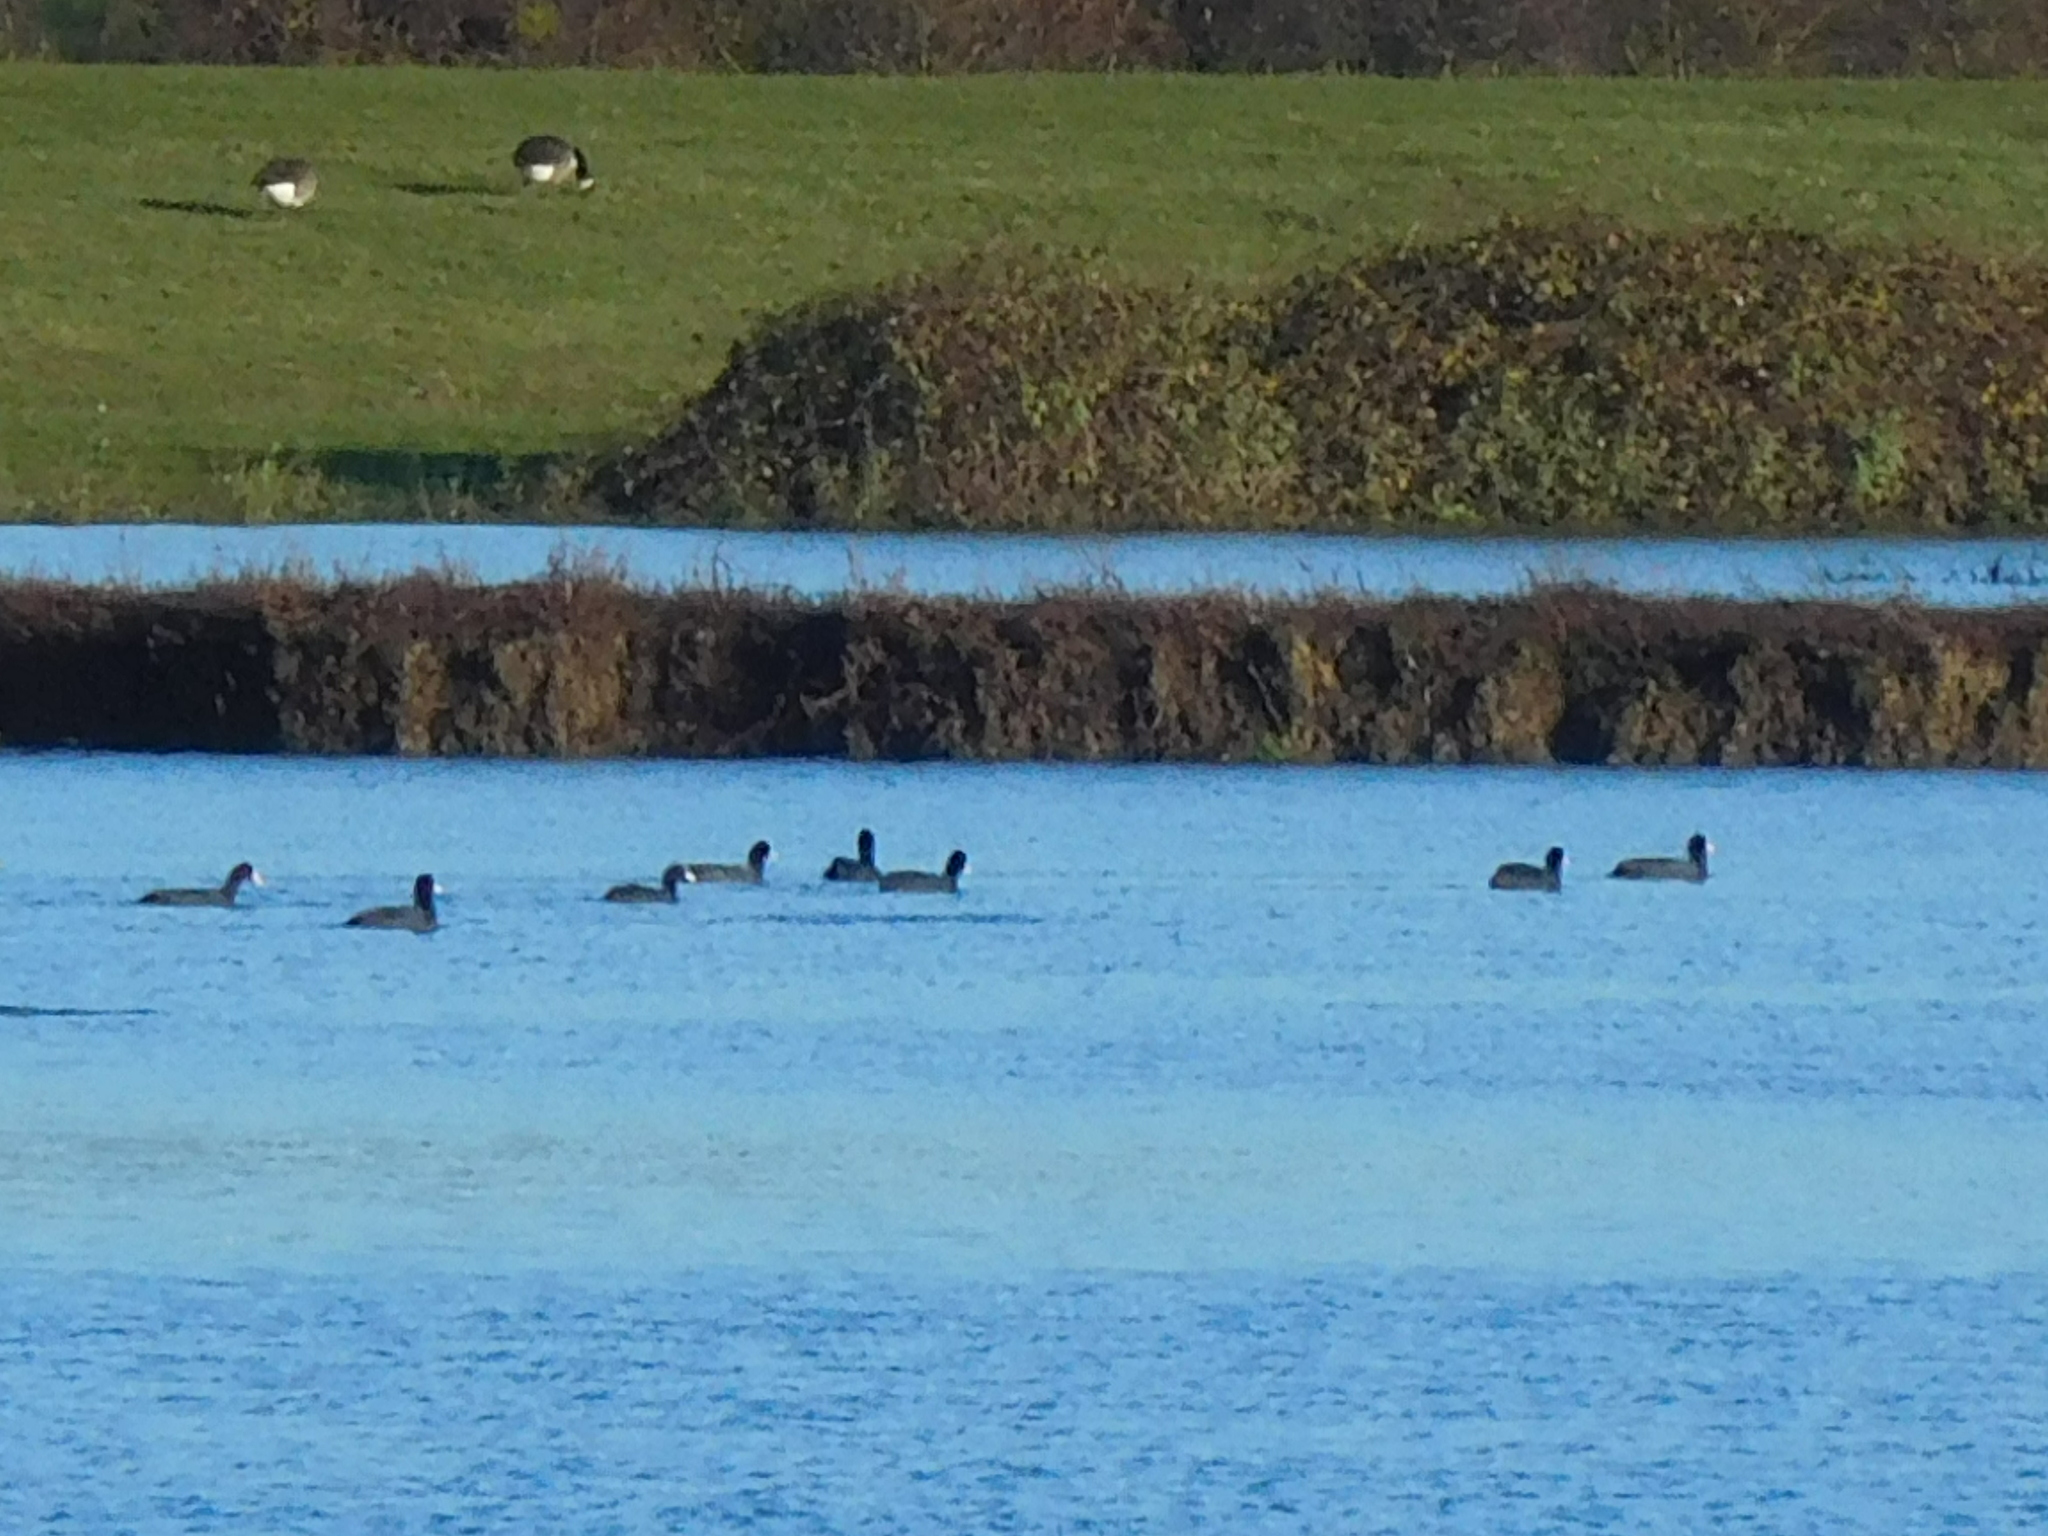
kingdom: Animalia
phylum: Chordata
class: Aves
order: Gruiformes
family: Rallidae
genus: Fulica
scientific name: Fulica atra
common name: Eurasian coot
